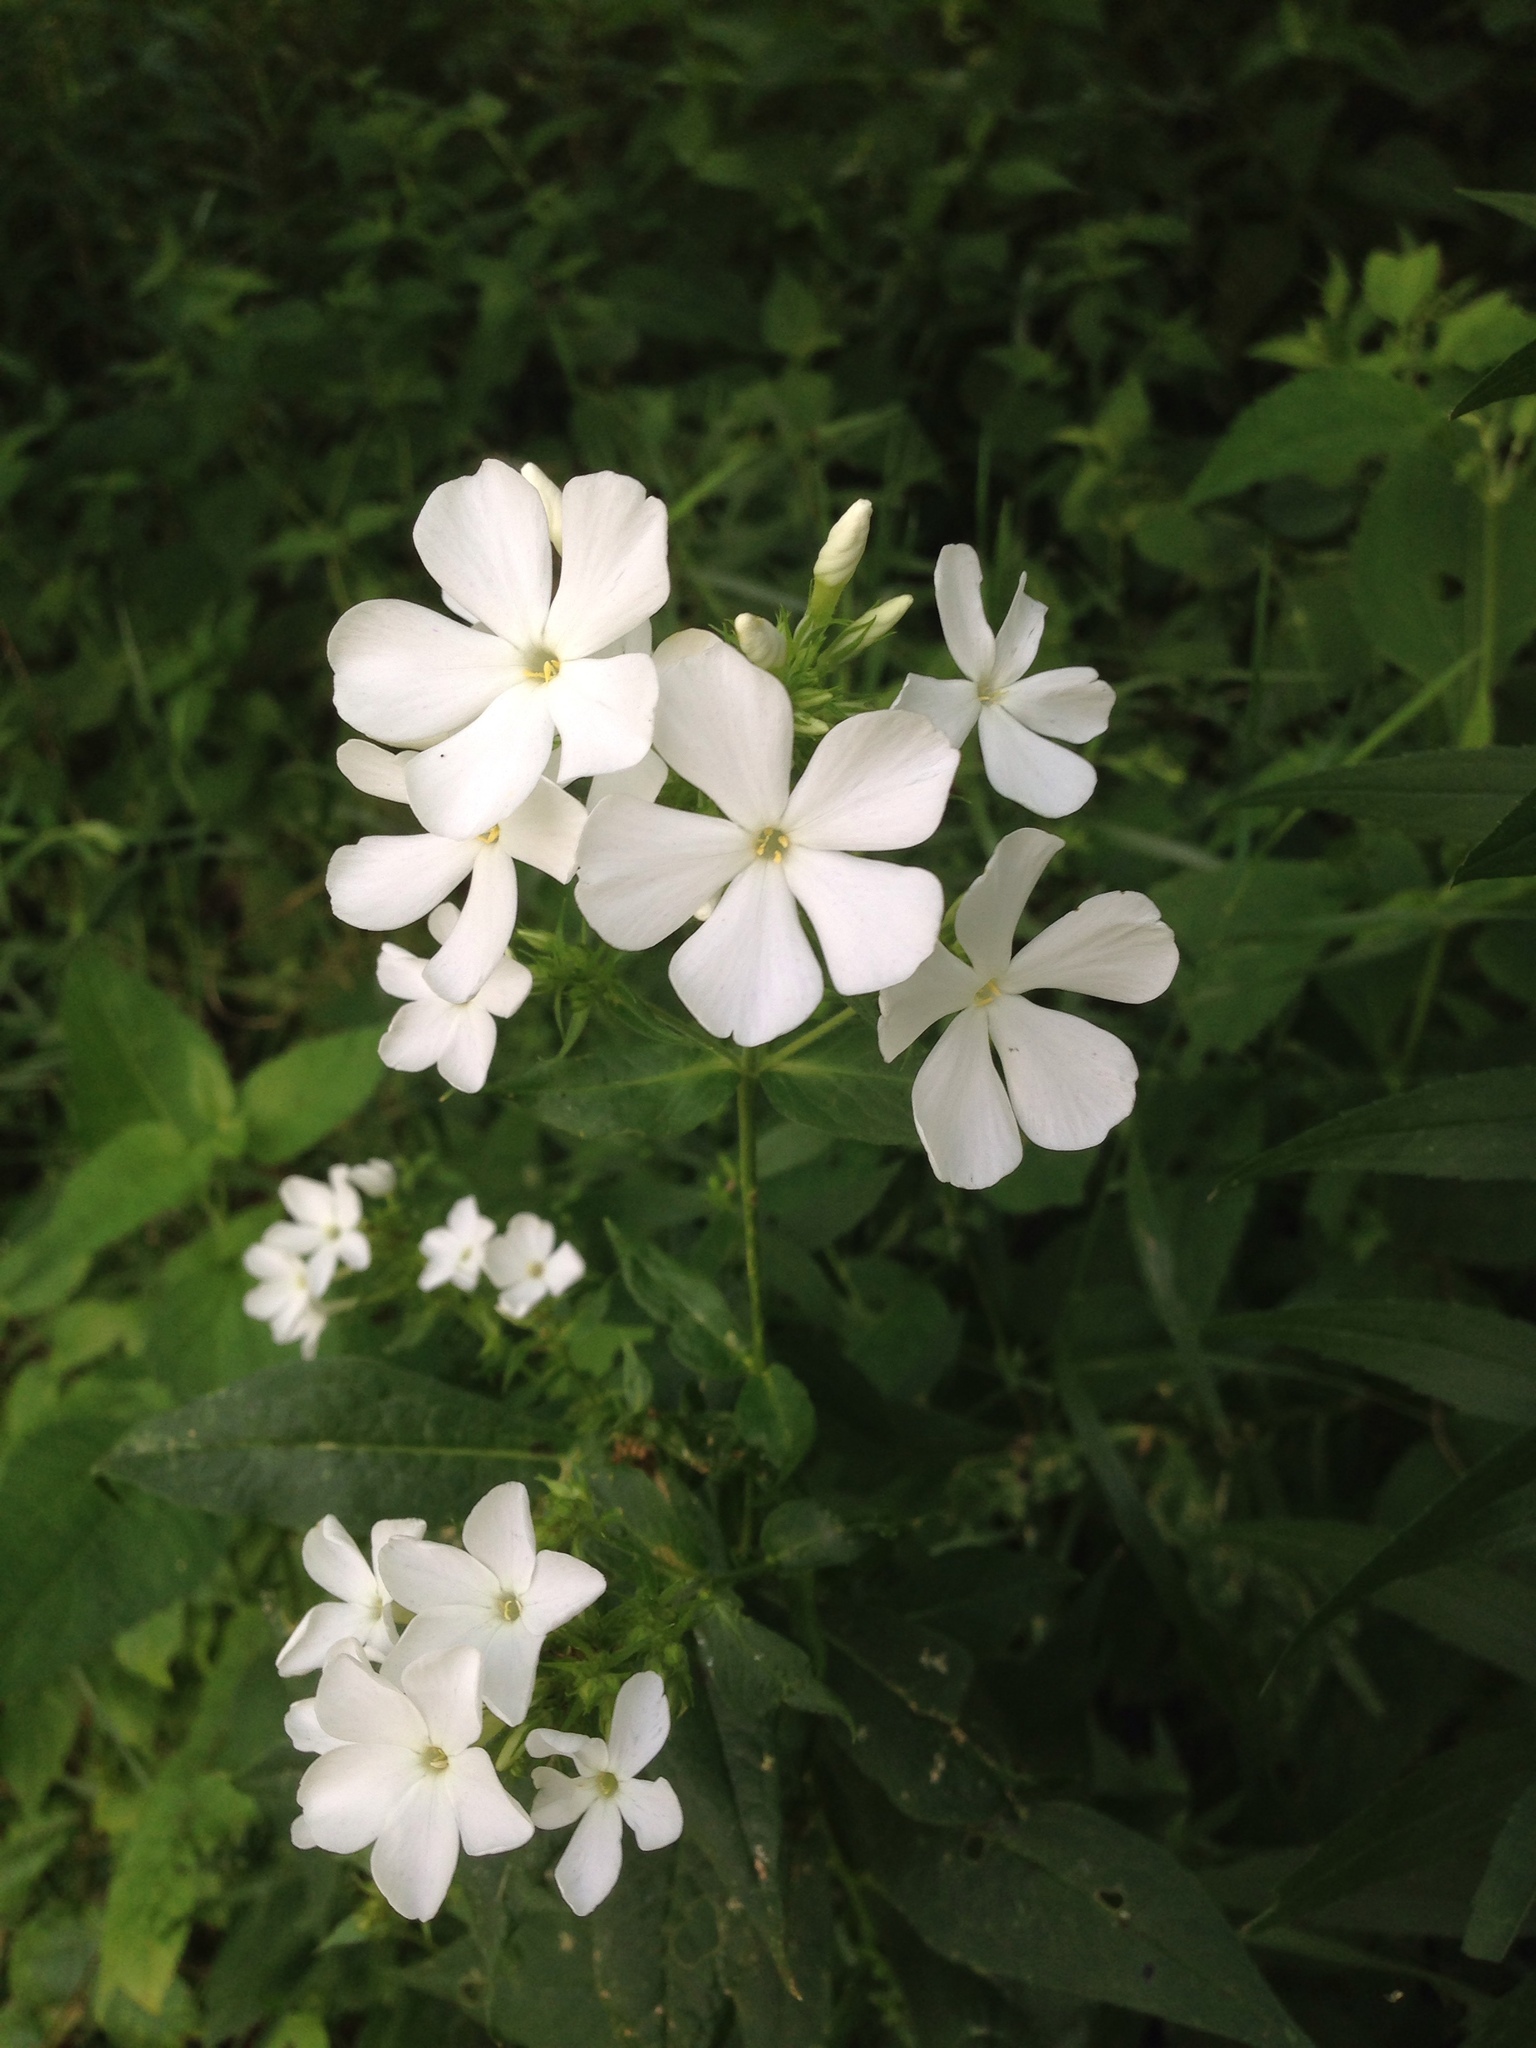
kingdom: Plantae
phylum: Tracheophyta
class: Magnoliopsida
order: Ericales
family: Polemoniaceae
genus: Phlox
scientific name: Phlox paniculata
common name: Fall phlox
